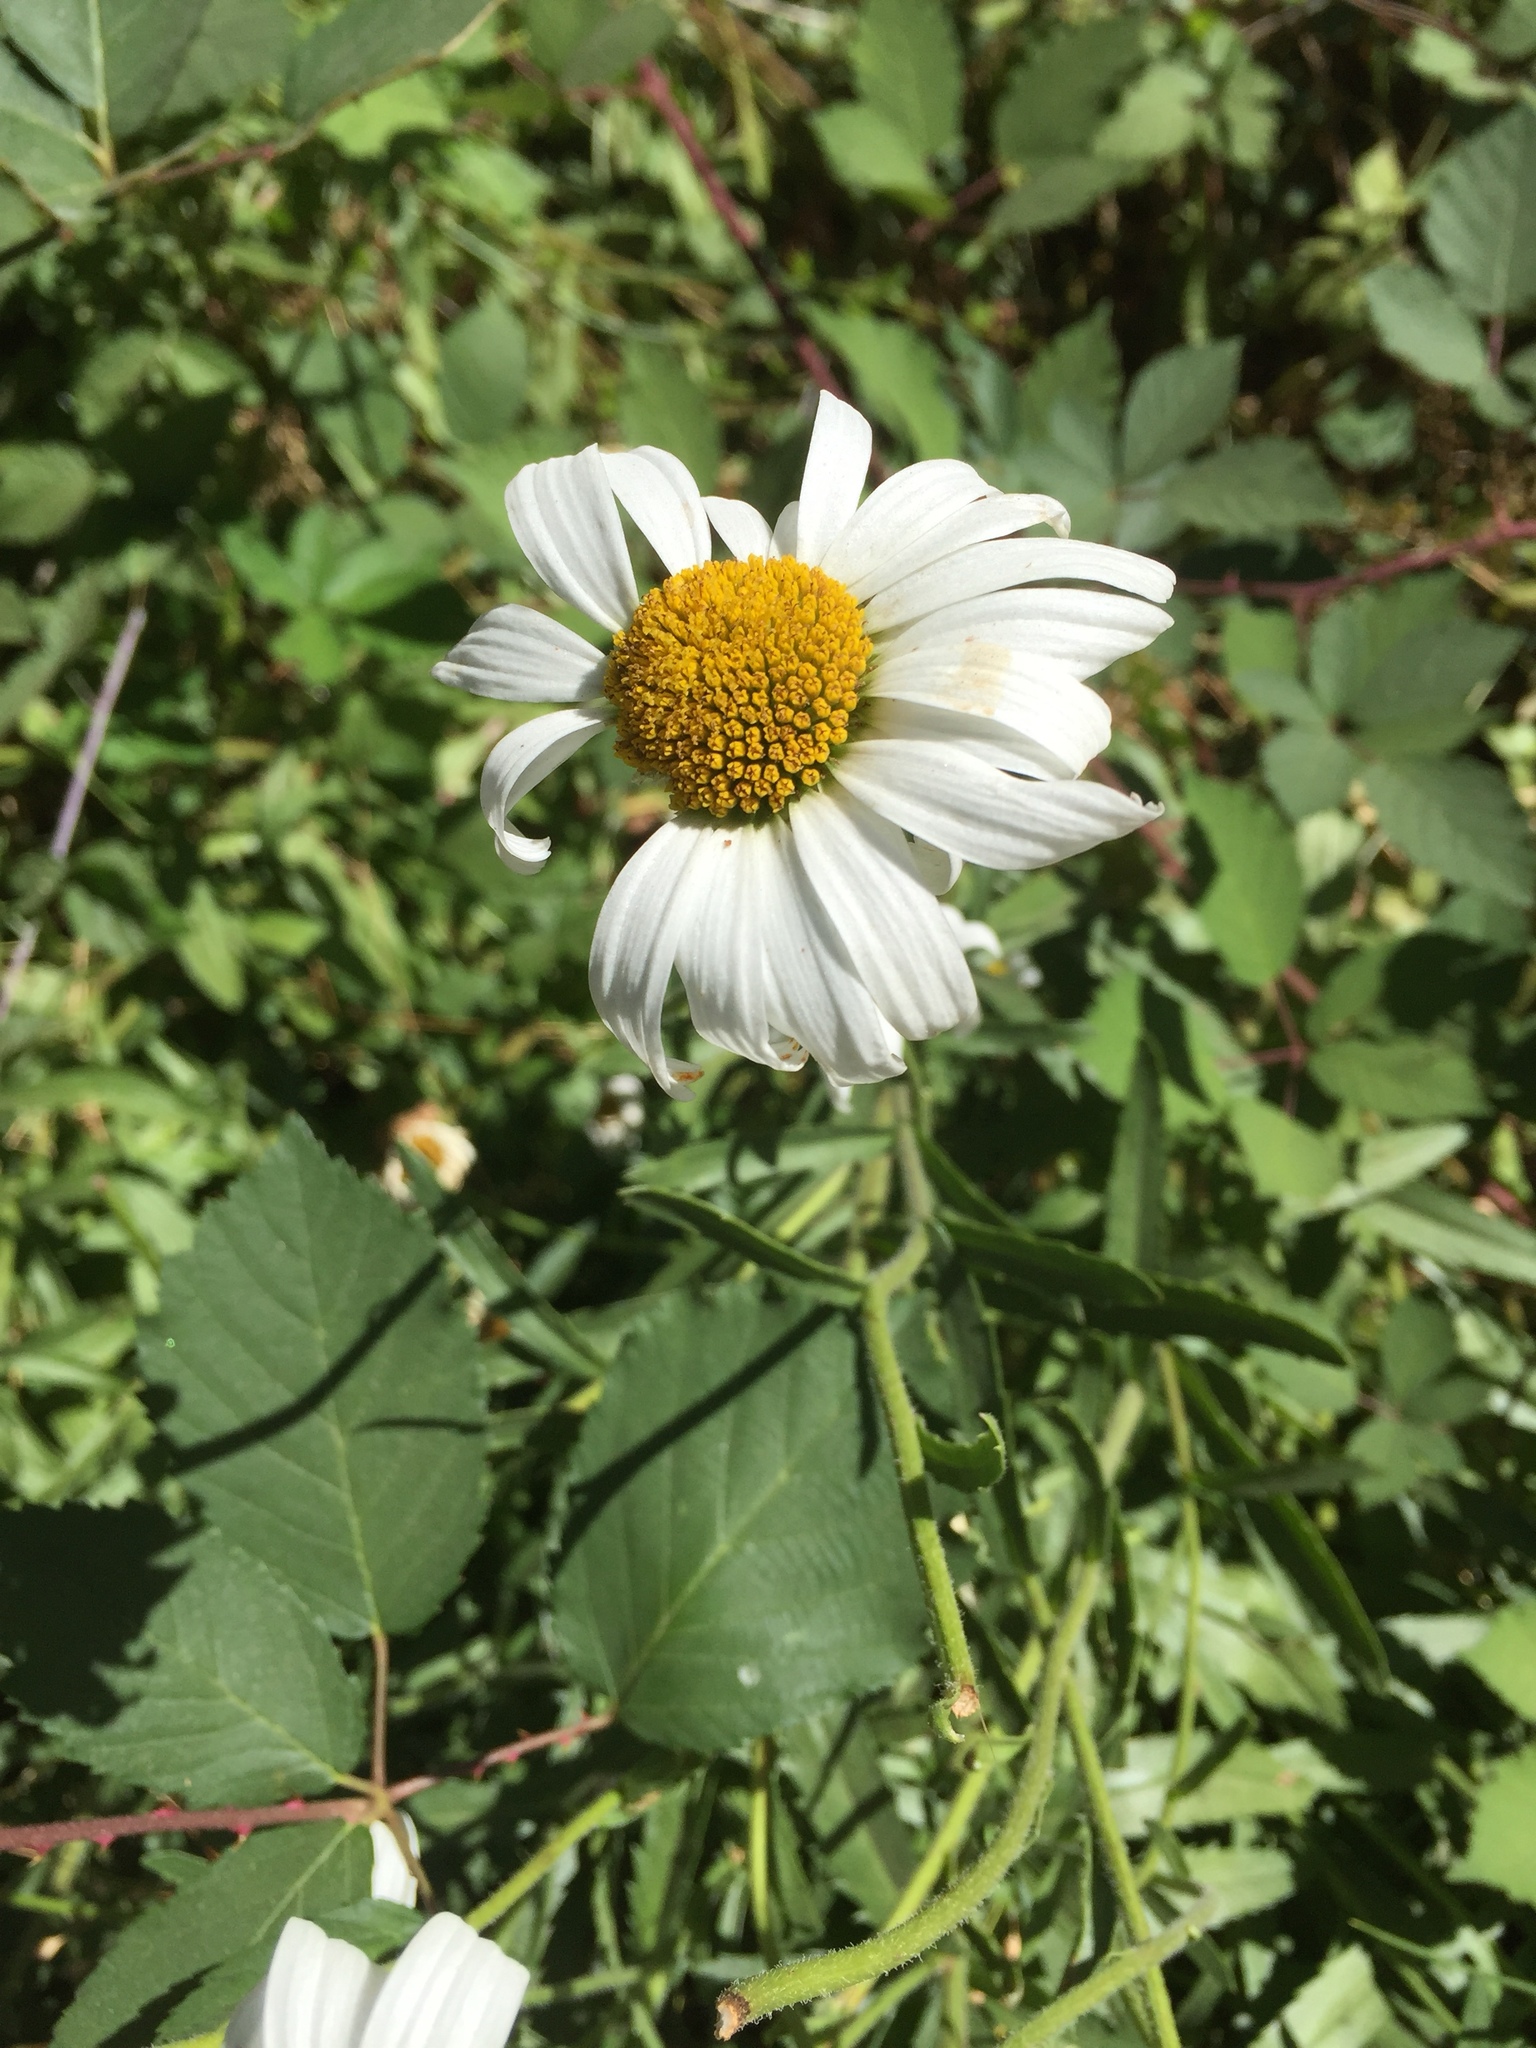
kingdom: Plantae
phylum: Tracheophyta
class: Magnoliopsida
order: Asterales
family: Asteraceae
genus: Leucanthemum
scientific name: Leucanthemum vulgare
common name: Oxeye daisy
